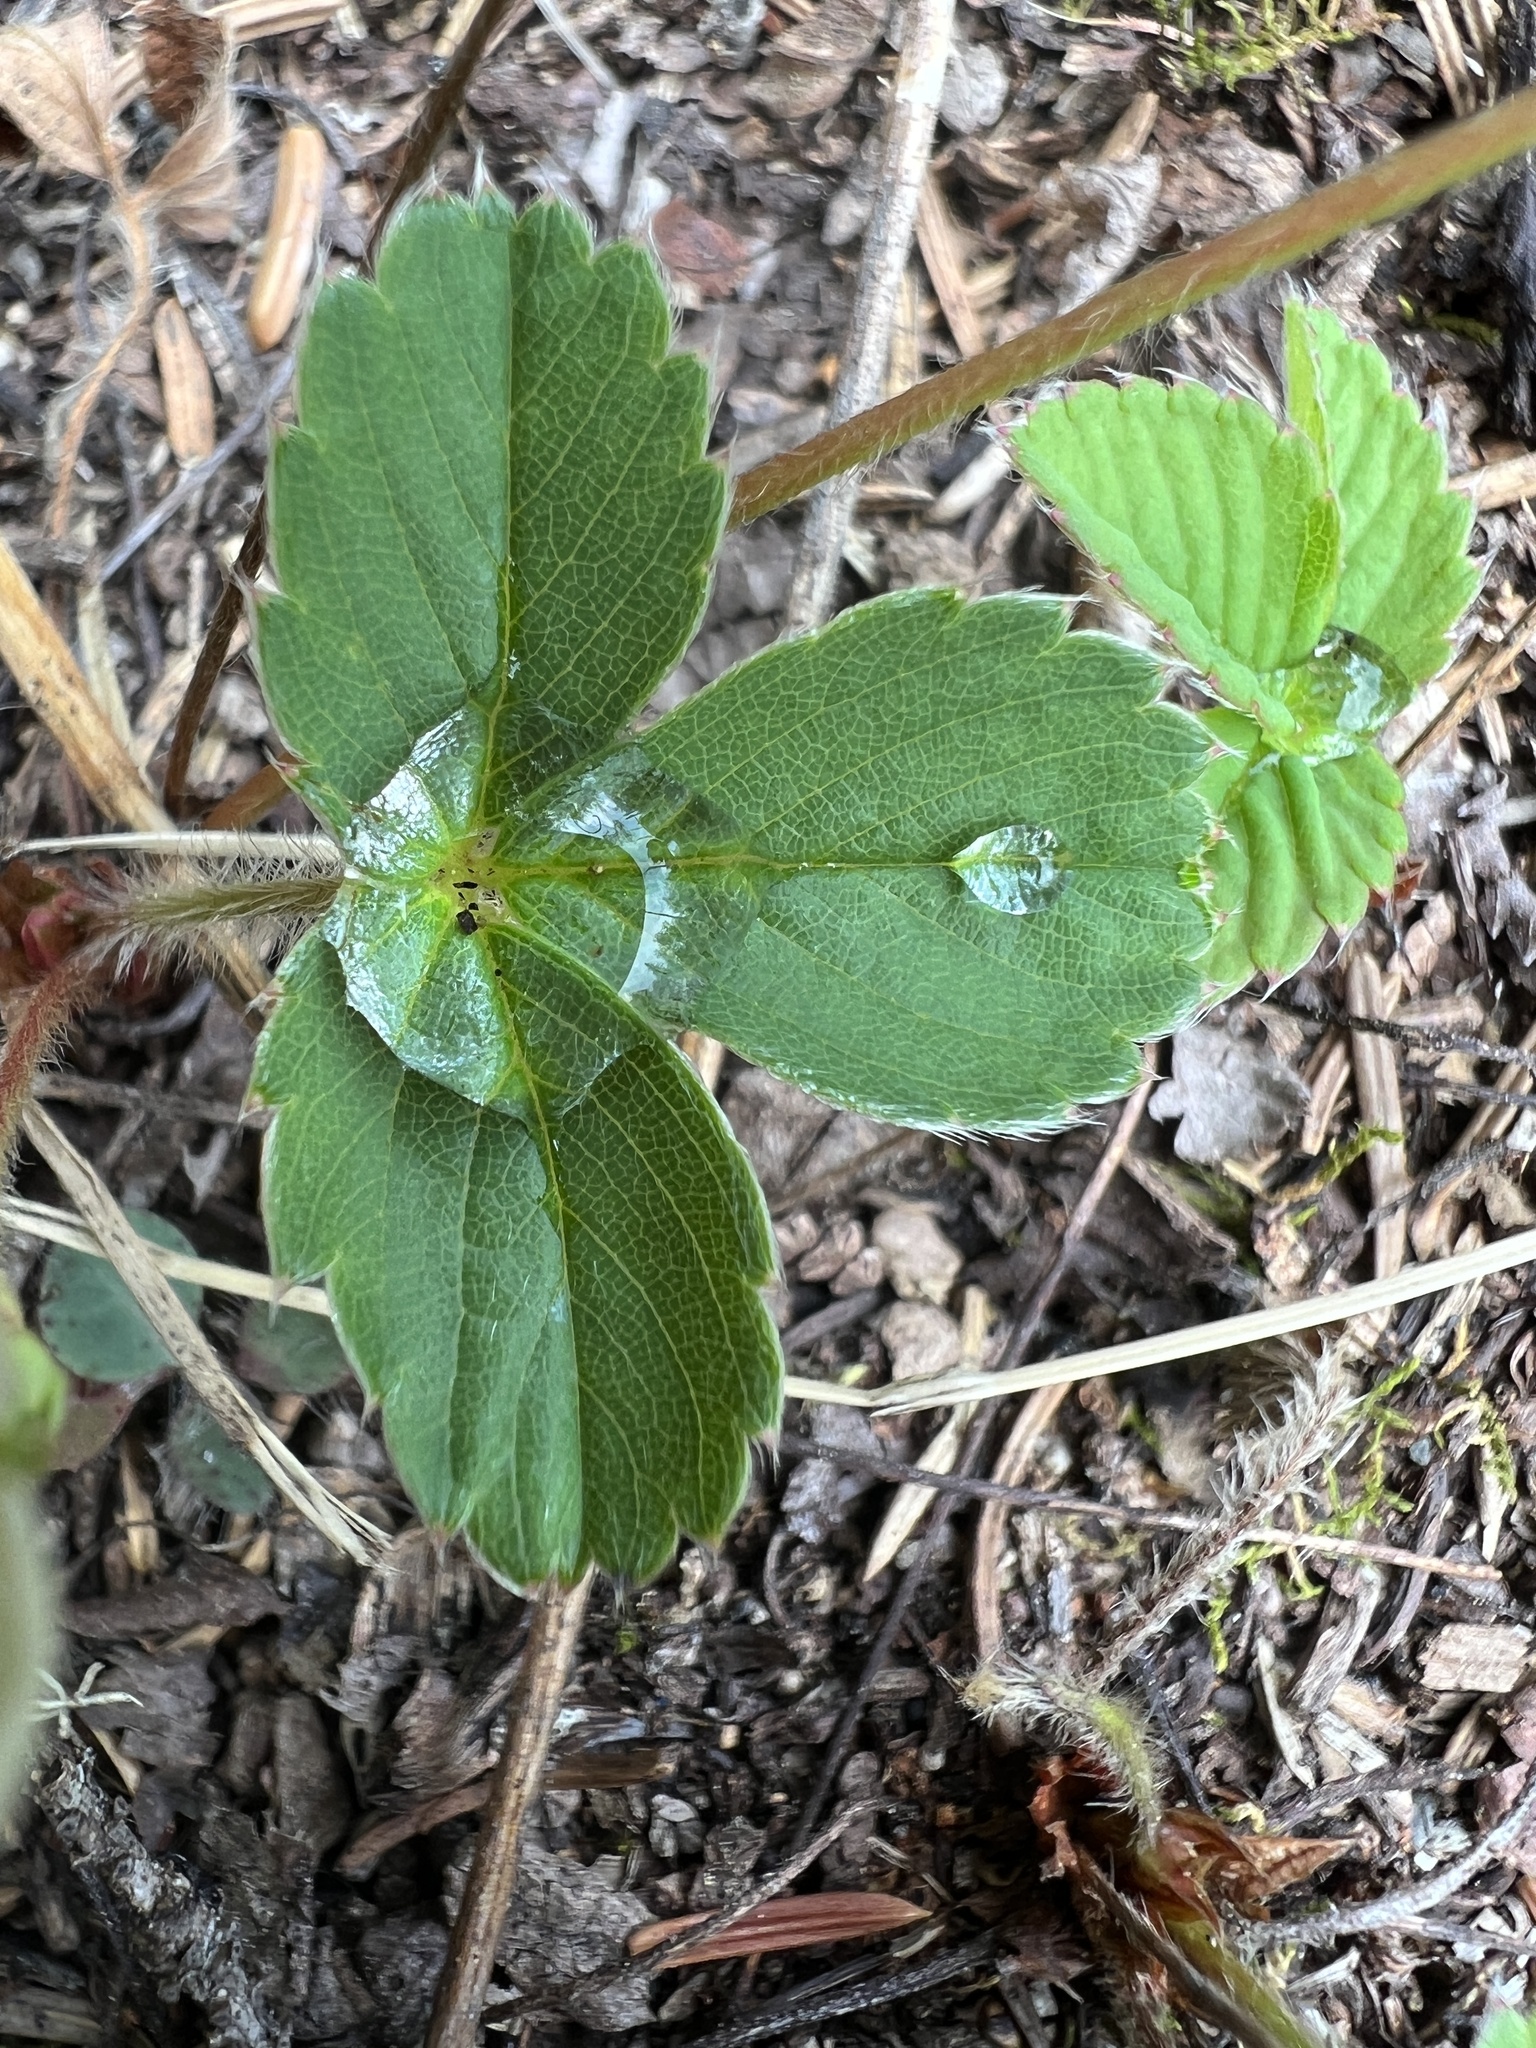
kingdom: Plantae
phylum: Tracheophyta
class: Magnoliopsida
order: Rosales
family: Rosaceae
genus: Fragaria
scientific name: Fragaria virginiana
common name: Thickleaved wild strawberry
